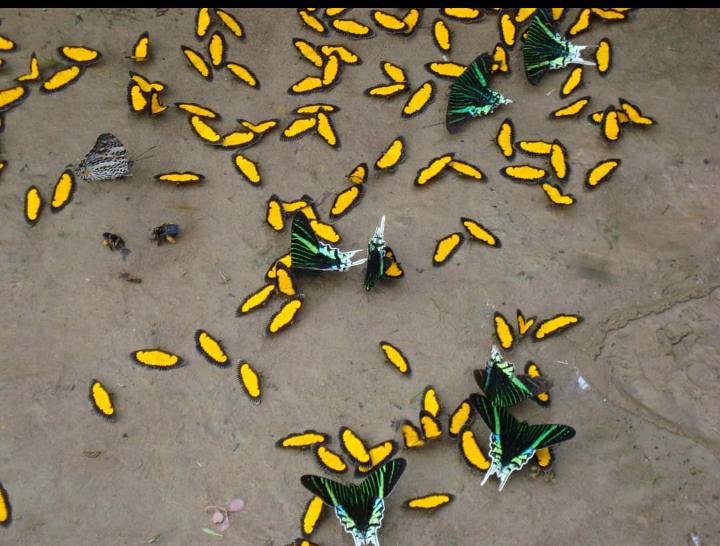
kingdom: Animalia
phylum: Arthropoda
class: Insecta
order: Lepidoptera
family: Uraniidae
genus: Urania
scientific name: Urania leilus
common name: Peacock moth
